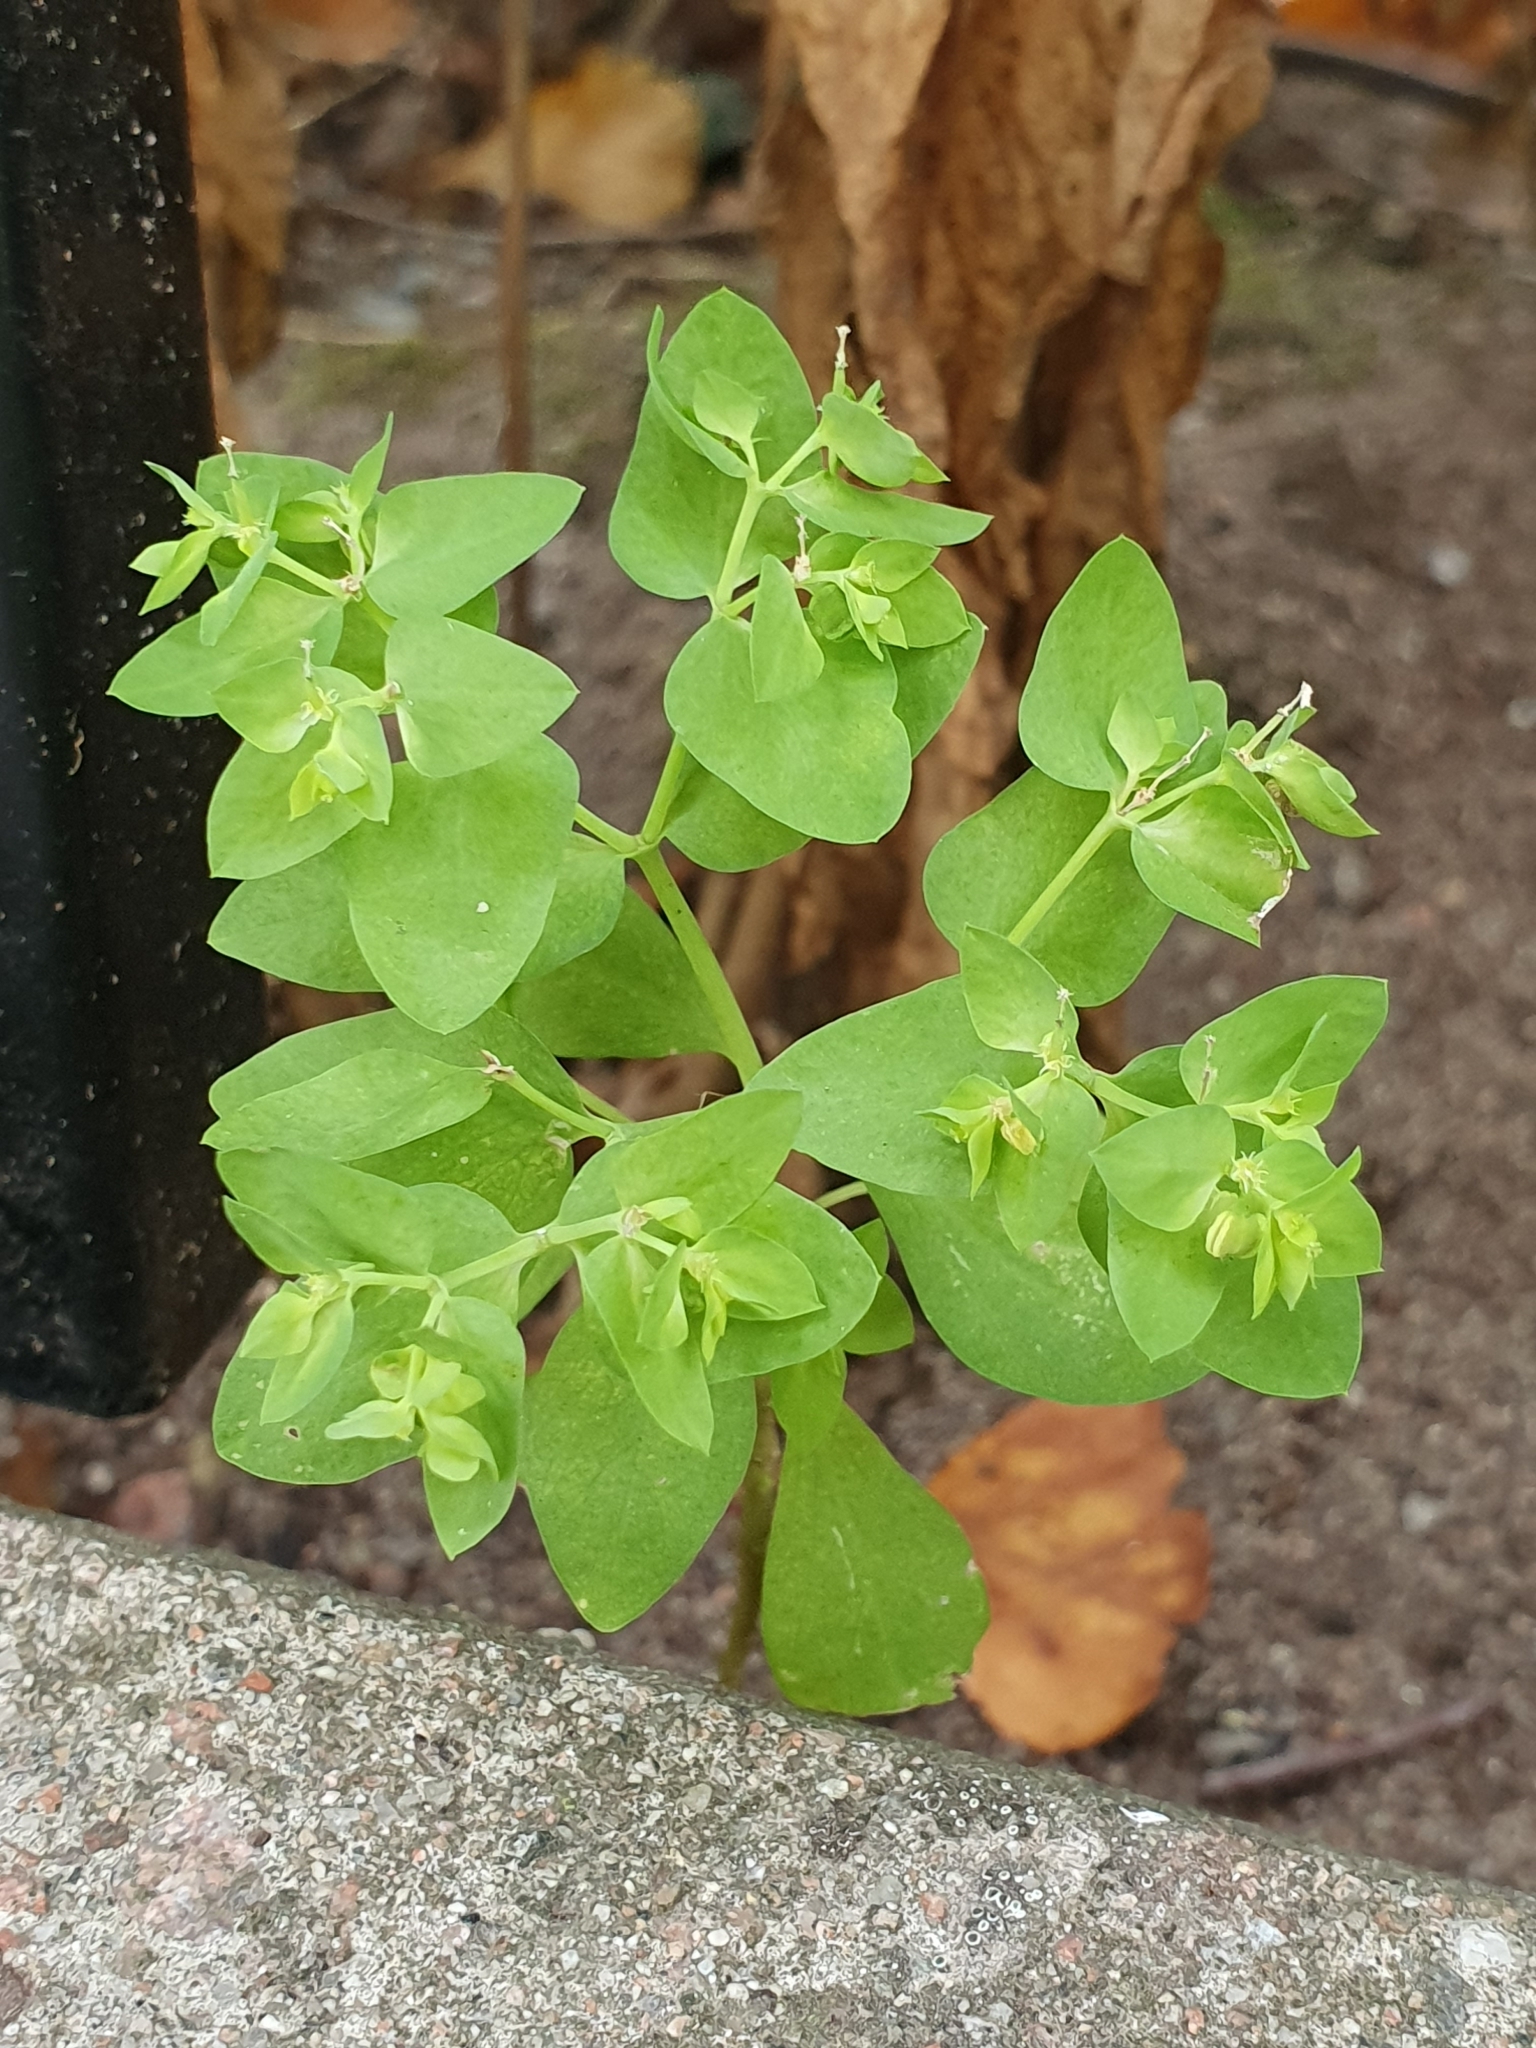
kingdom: Plantae
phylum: Tracheophyta
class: Magnoliopsida
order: Malpighiales
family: Euphorbiaceae
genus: Euphorbia
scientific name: Euphorbia peplus
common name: Petty spurge
